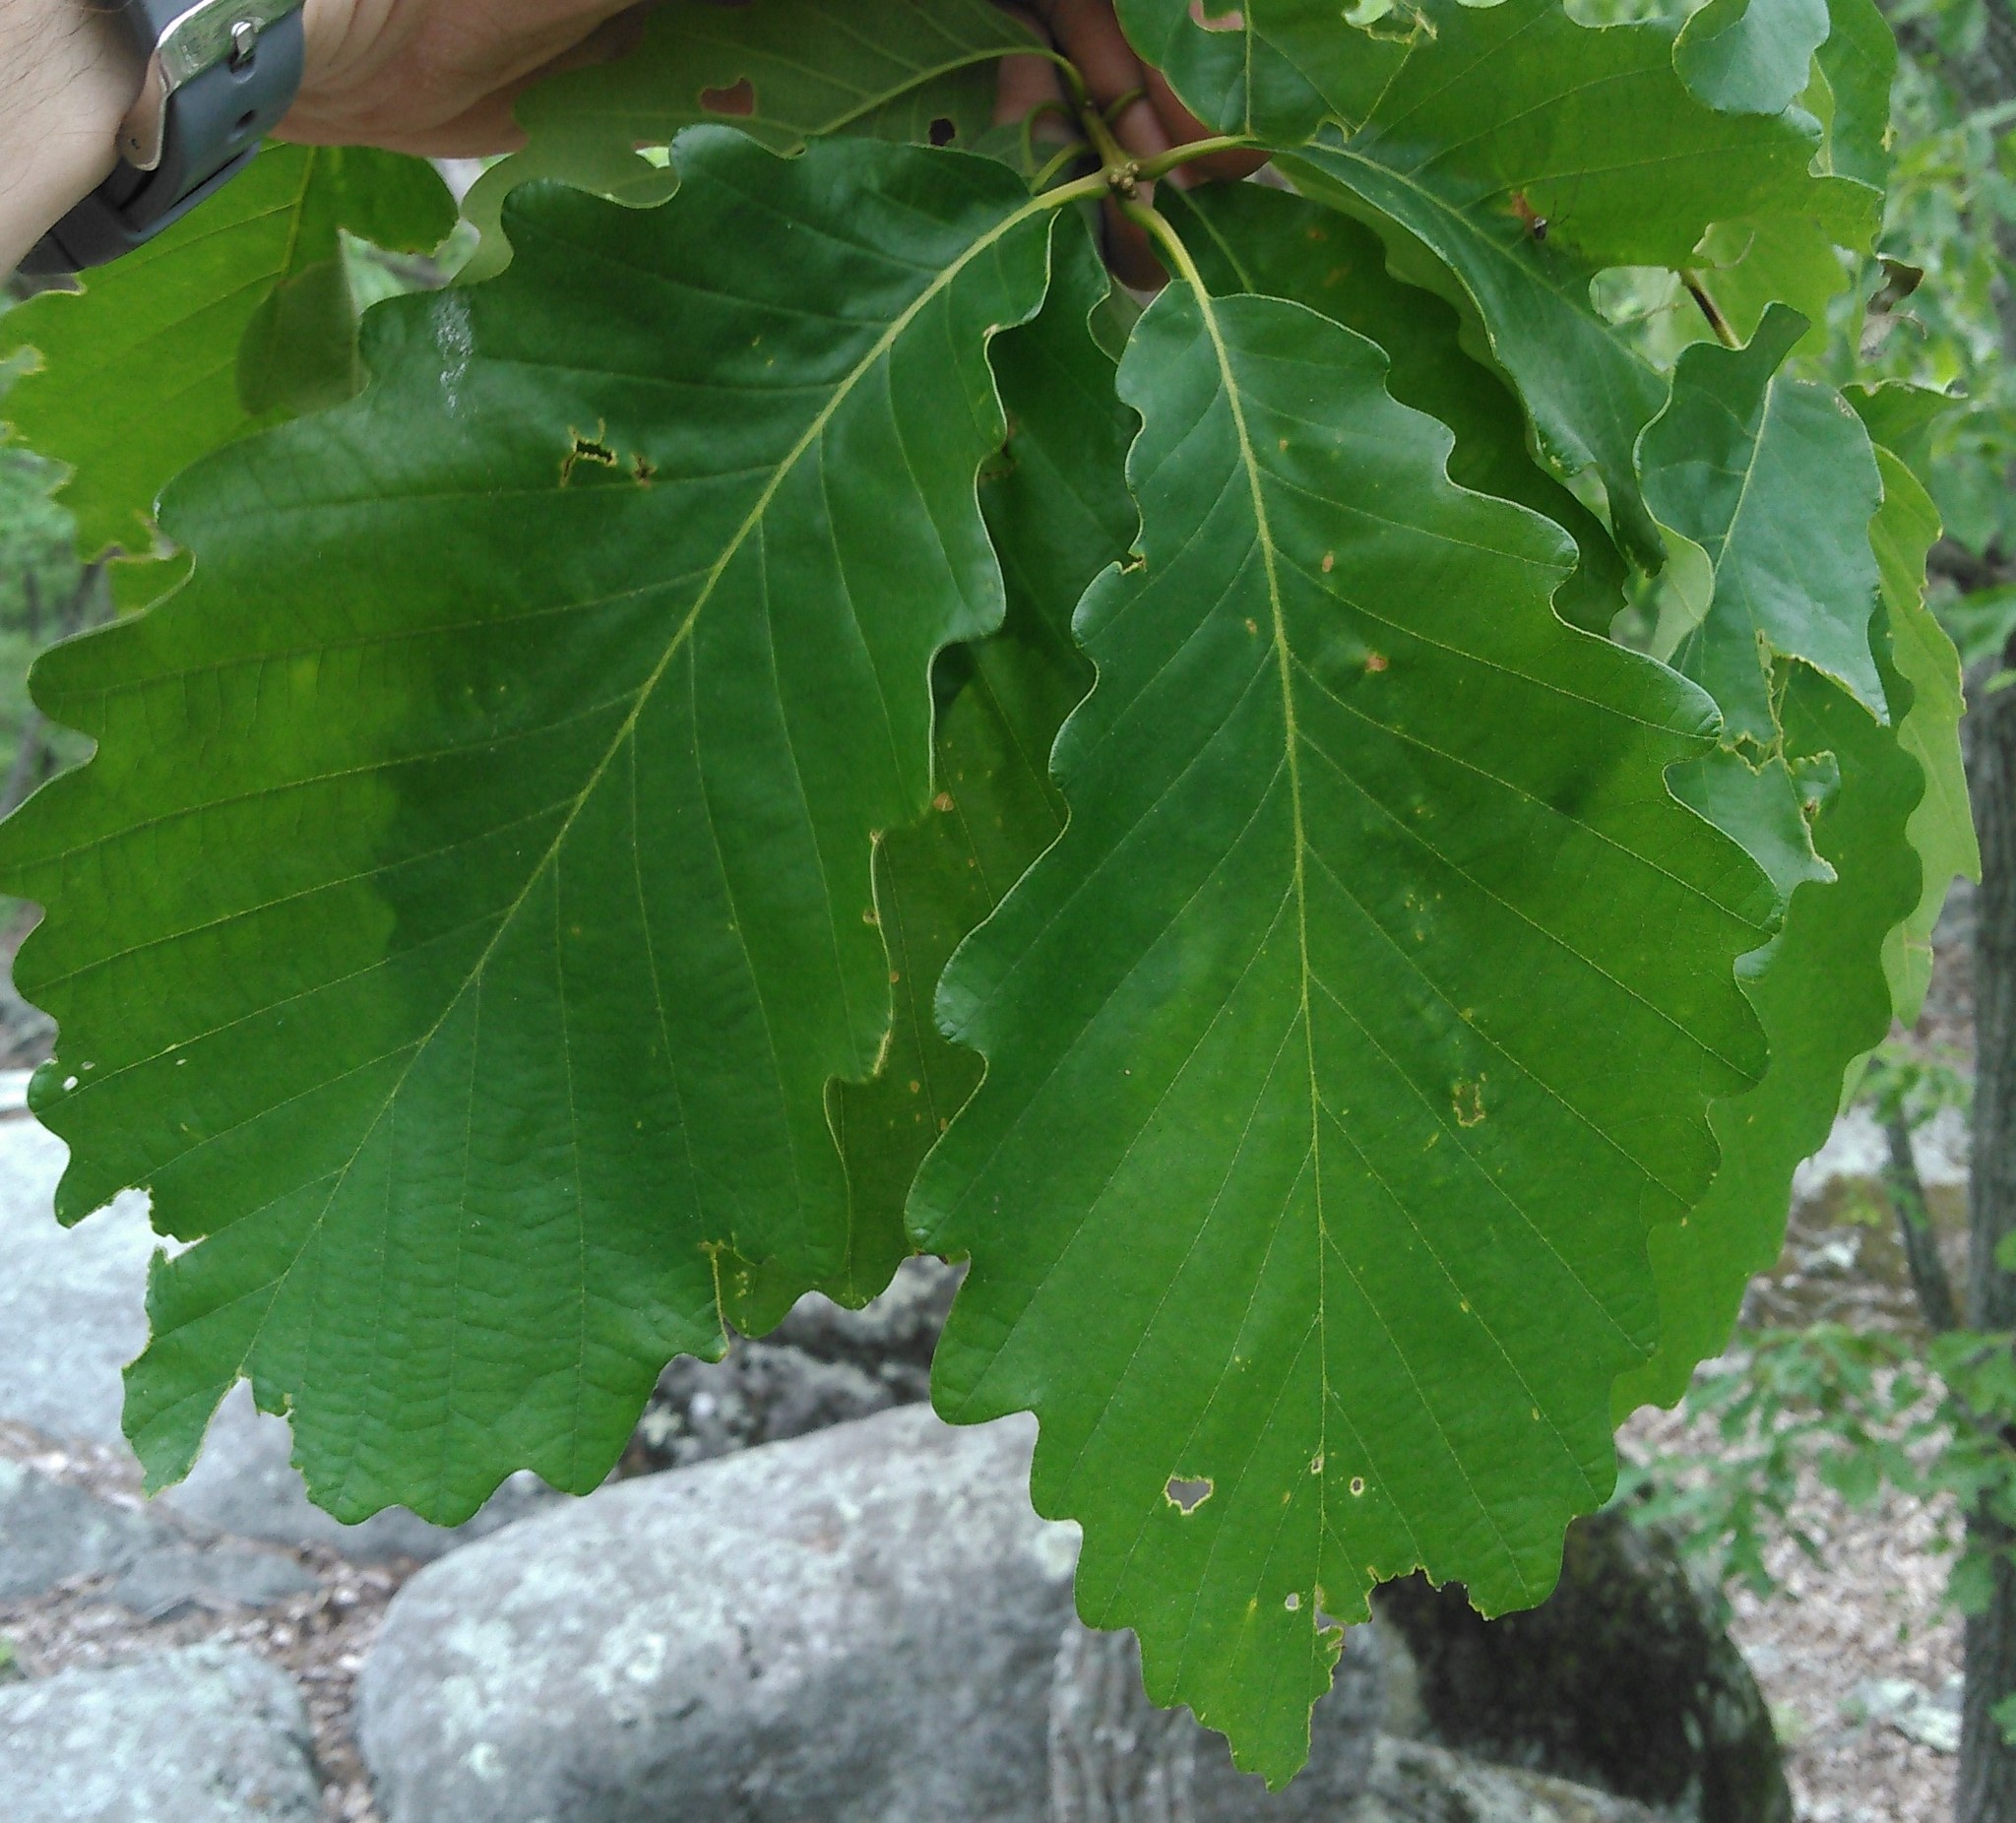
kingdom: Plantae
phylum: Tracheophyta
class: Magnoliopsida
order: Fagales
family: Fagaceae
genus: Quercus
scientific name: Quercus montana
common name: Chestnut oak
